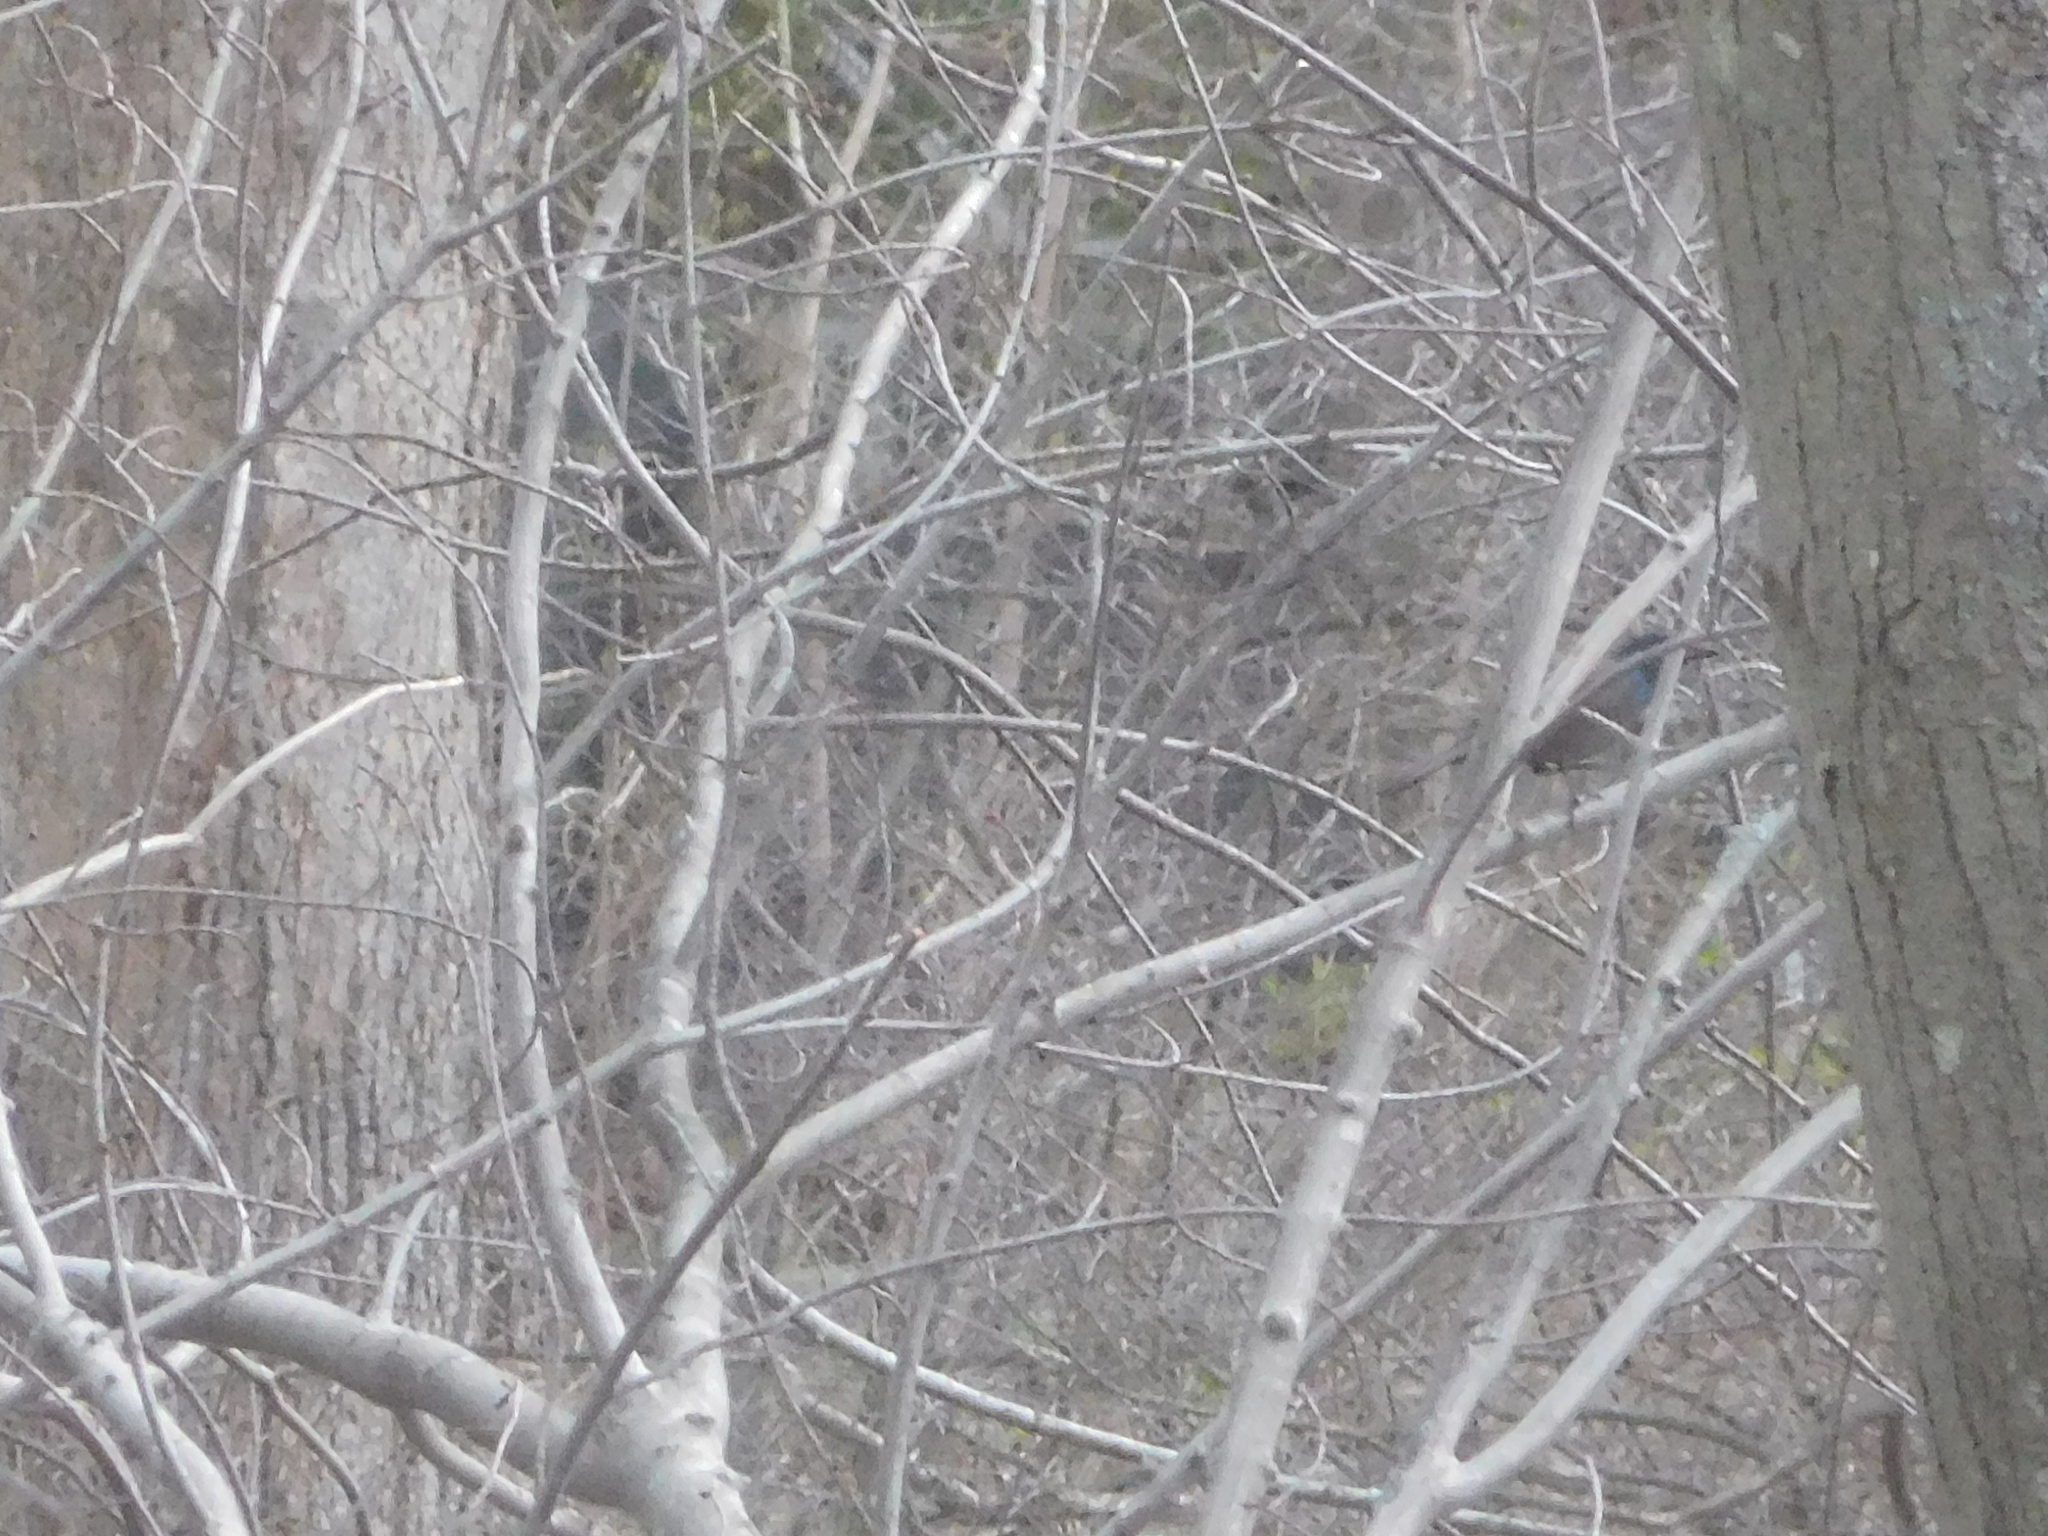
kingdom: Animalia
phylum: Chordata
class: Aves
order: Passeriformes
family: Icteridae
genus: Quiscalus
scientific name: Quiscalus quiscula
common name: Common grackle
